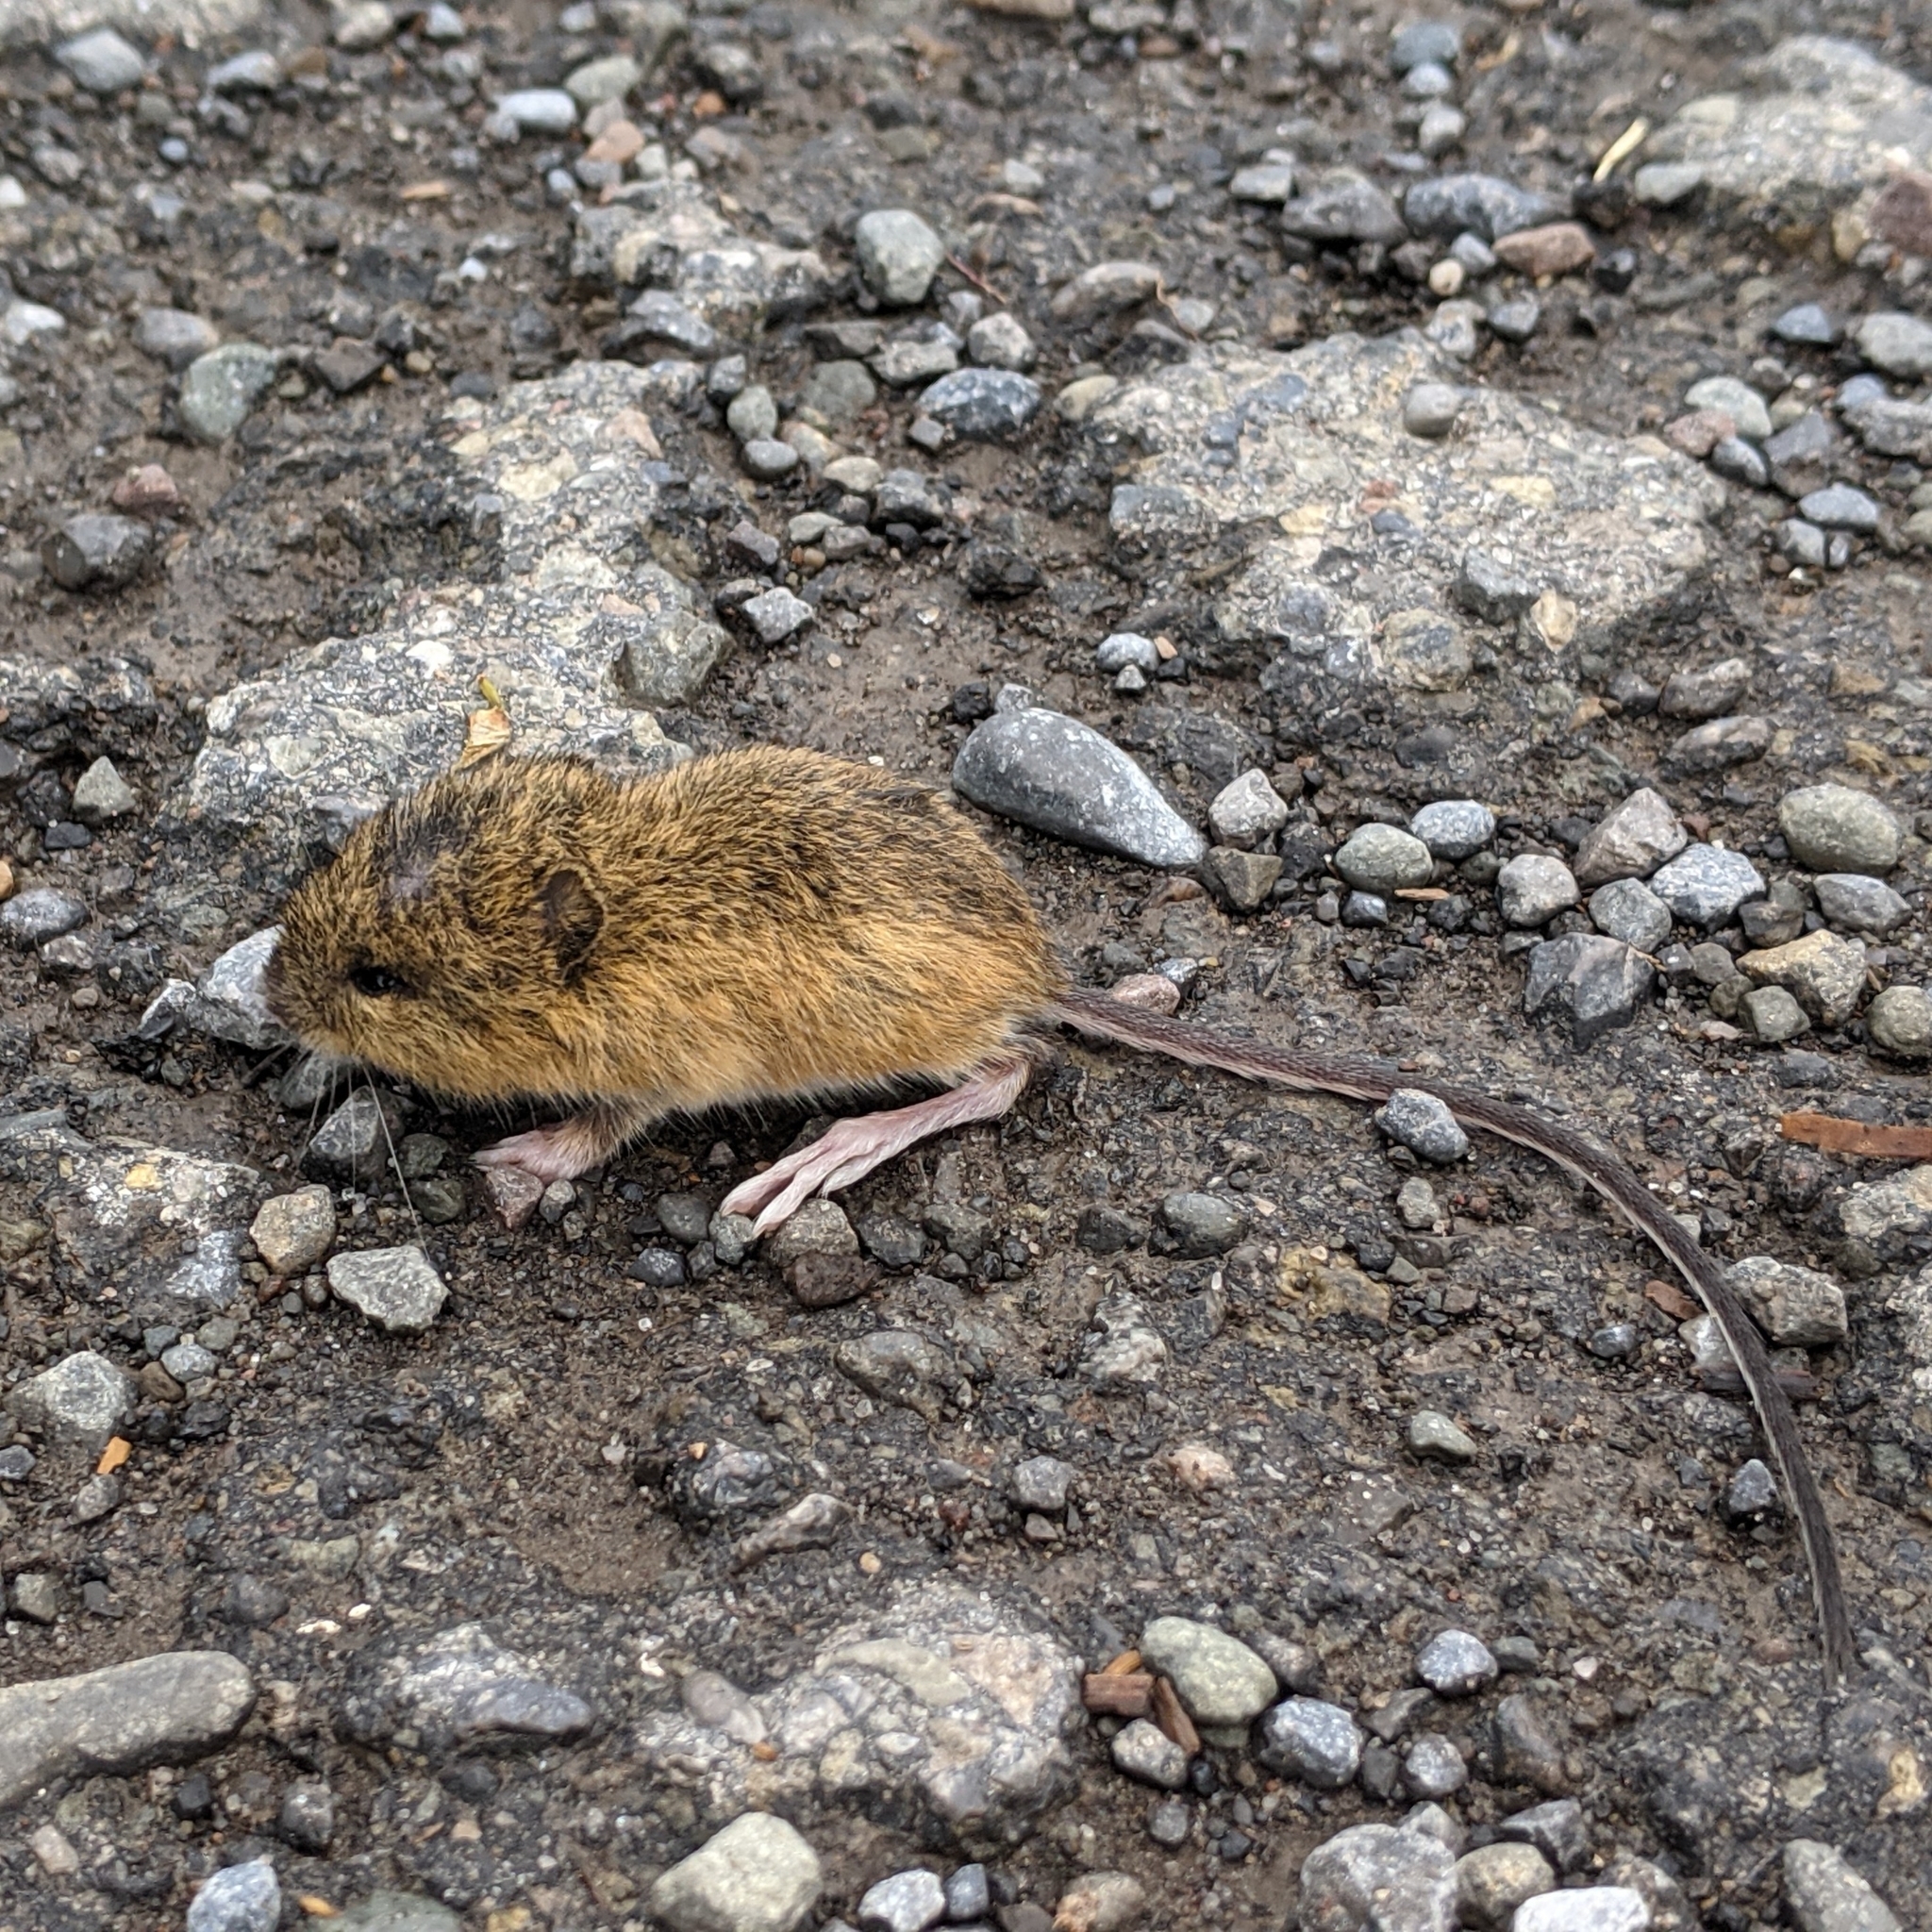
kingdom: Animalia
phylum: Chordata
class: Mammalia
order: Rodentia
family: Dipodidae
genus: Zapus
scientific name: Zapus hudsonius
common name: Meadow jumping mouse
